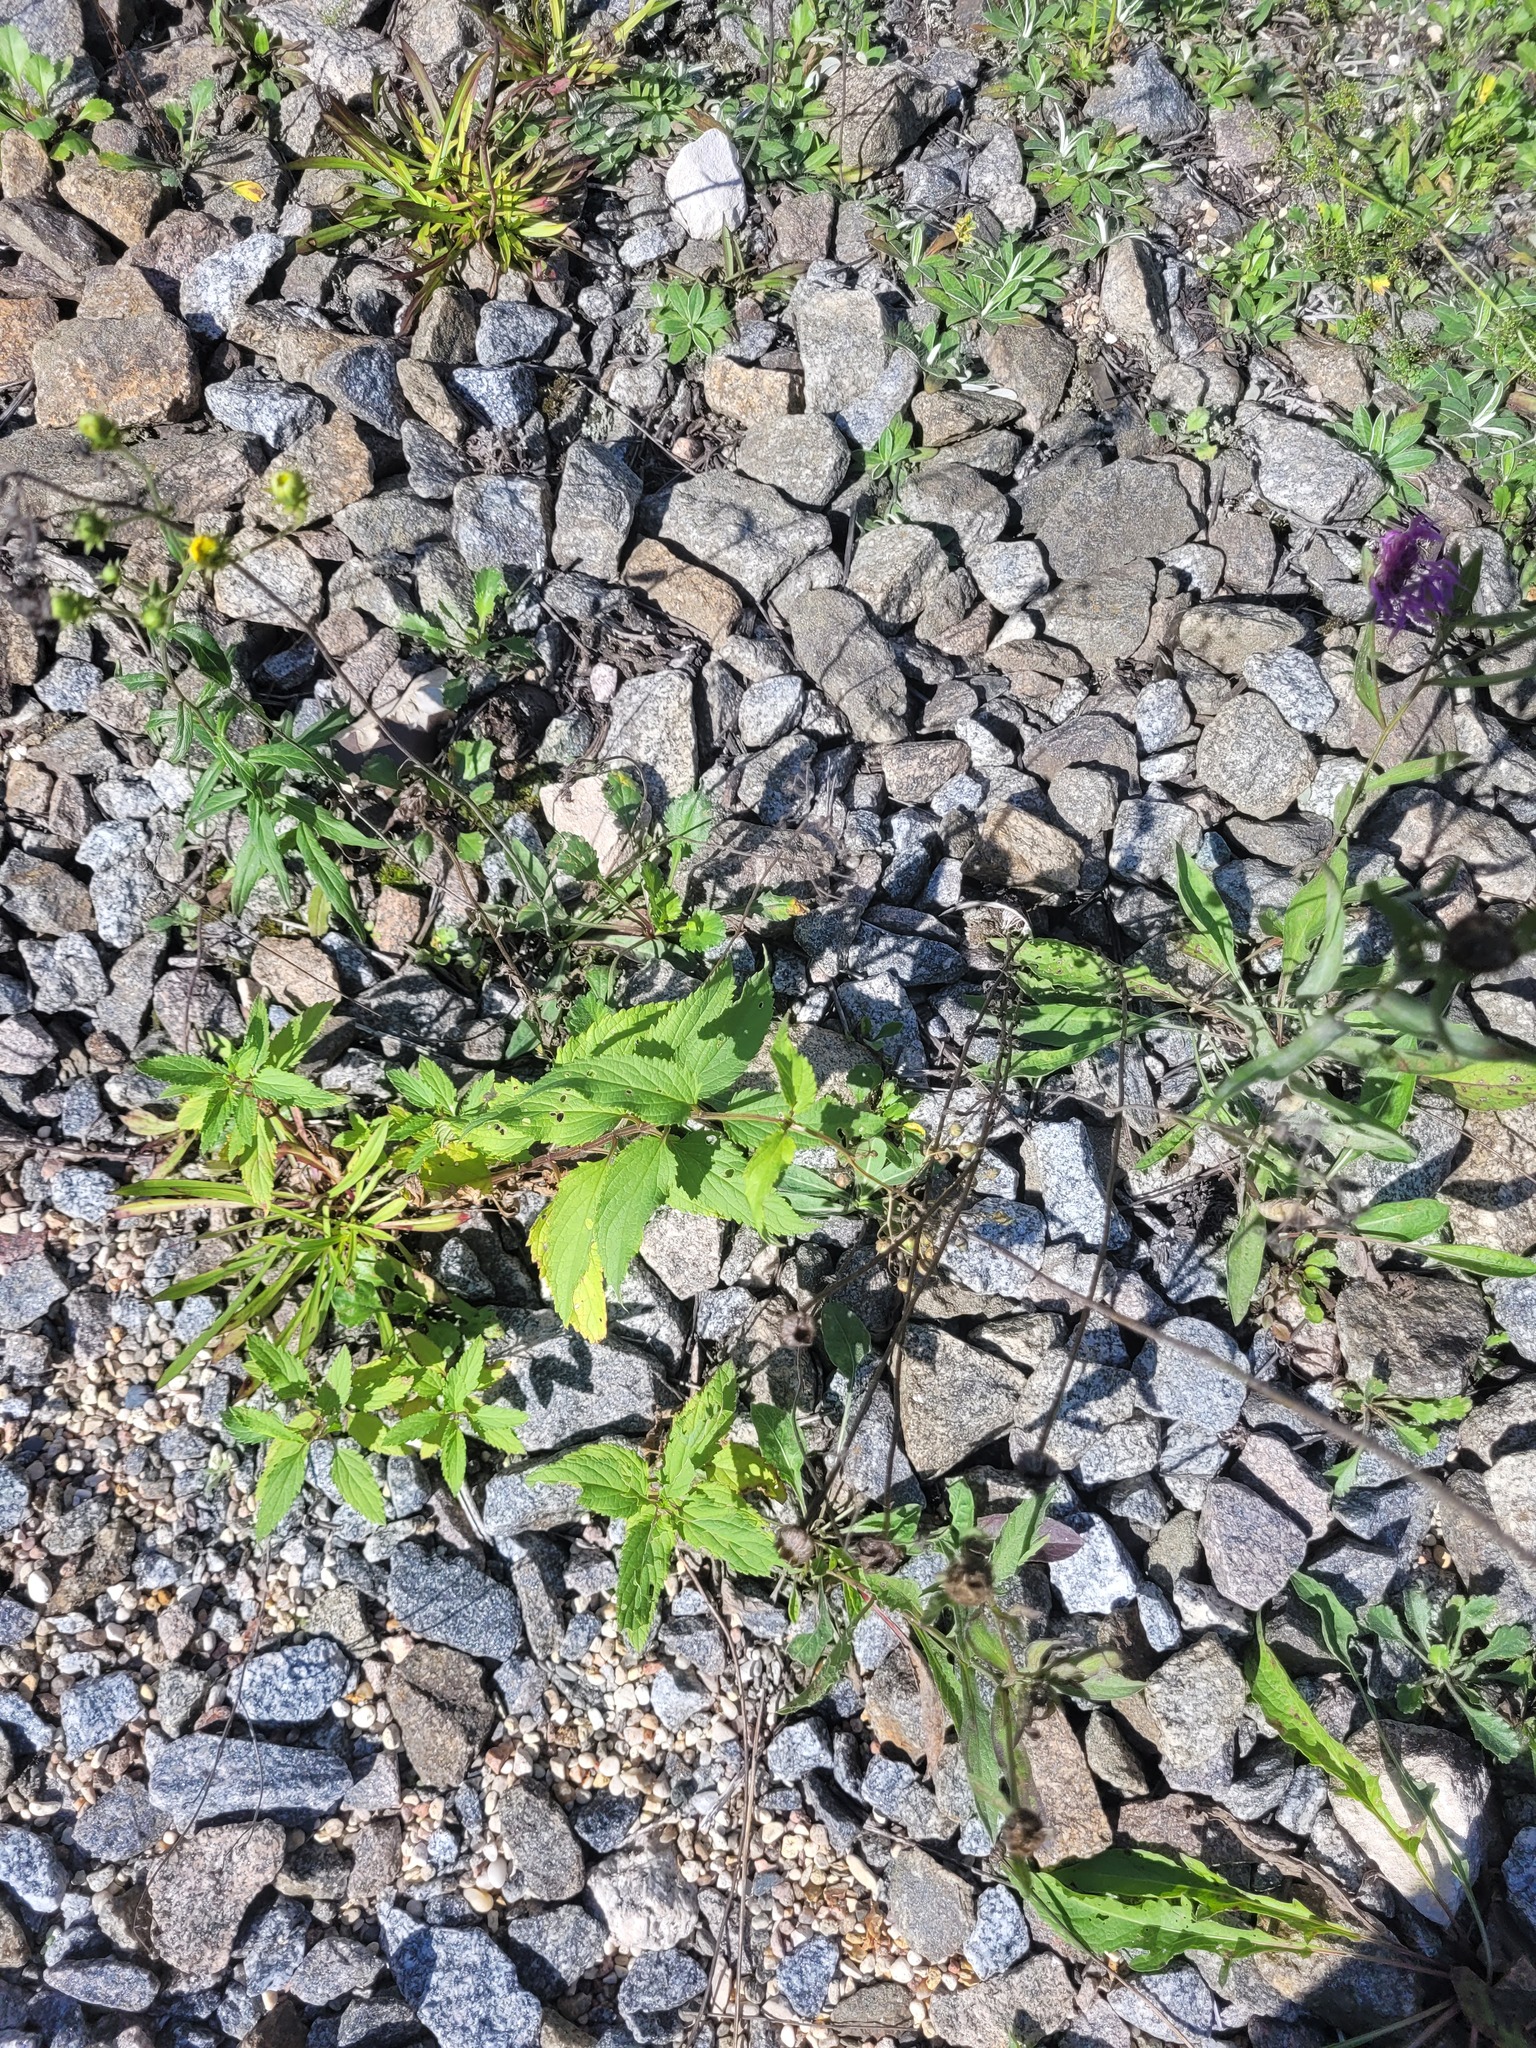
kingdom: Plantae
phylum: Tracheophyta
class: Magnoliopsida
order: Lamiales
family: Scrophulariaceae
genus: Scrophularia
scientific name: Scrophularia nodosa
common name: Common figwort
